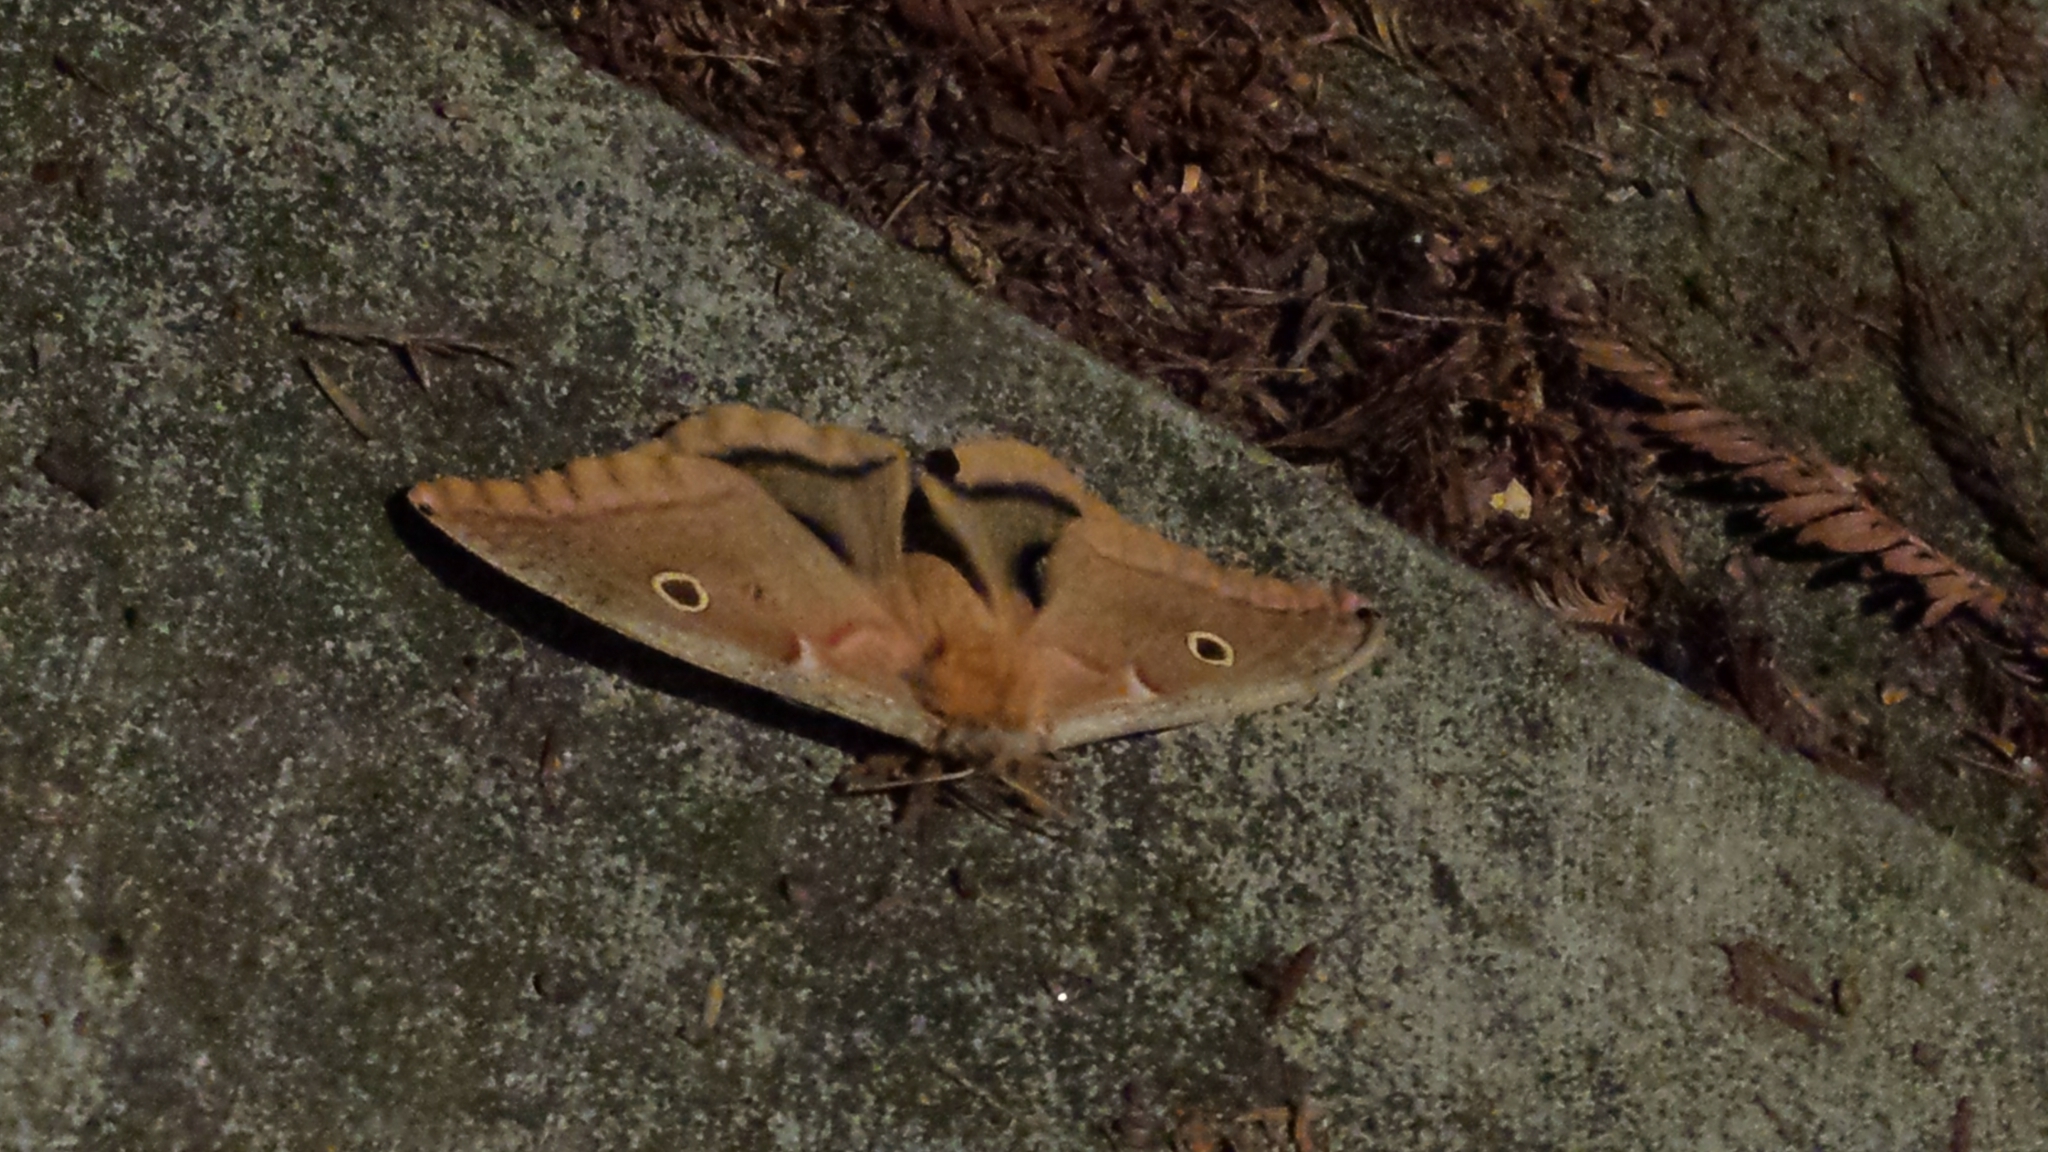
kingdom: Animalia
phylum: Arthropoda
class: Insecta
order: Lepidoptera
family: Saturniidae
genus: Antheraea
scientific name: Antheraea polyphemus
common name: Polyphemus moth
